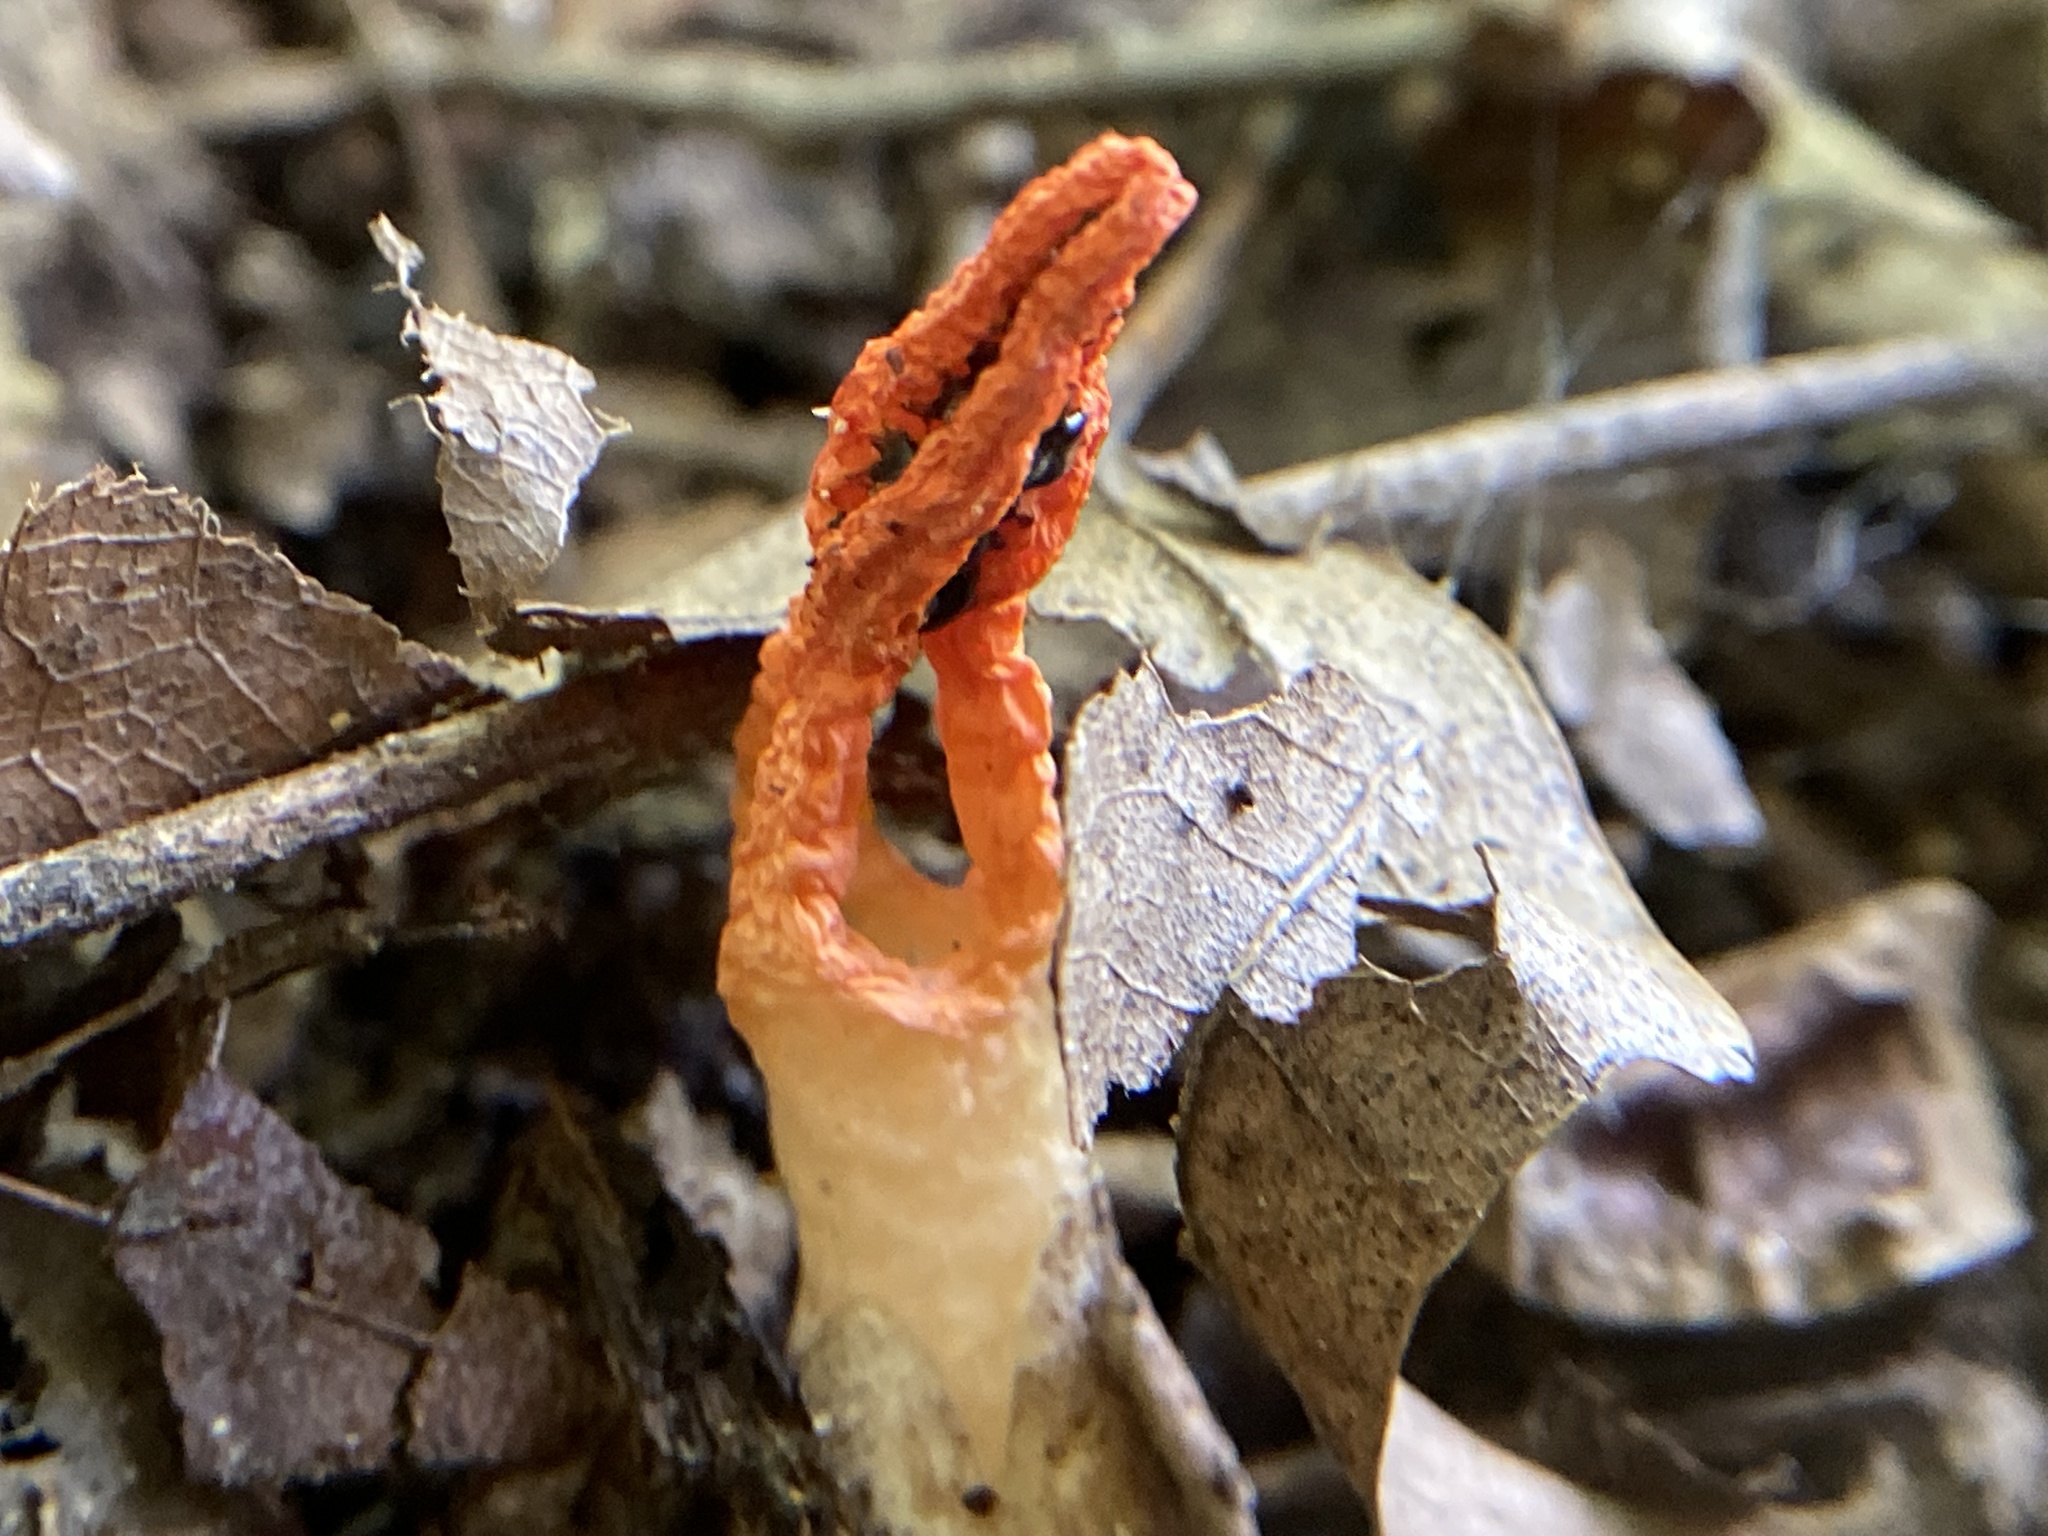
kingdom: Fungi
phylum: Basidiomycota
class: Agaricomycetes
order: Phallales
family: Phallaceae
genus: Pseudocolus
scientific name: Pseudocolus fusiformis
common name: Stinky squid
